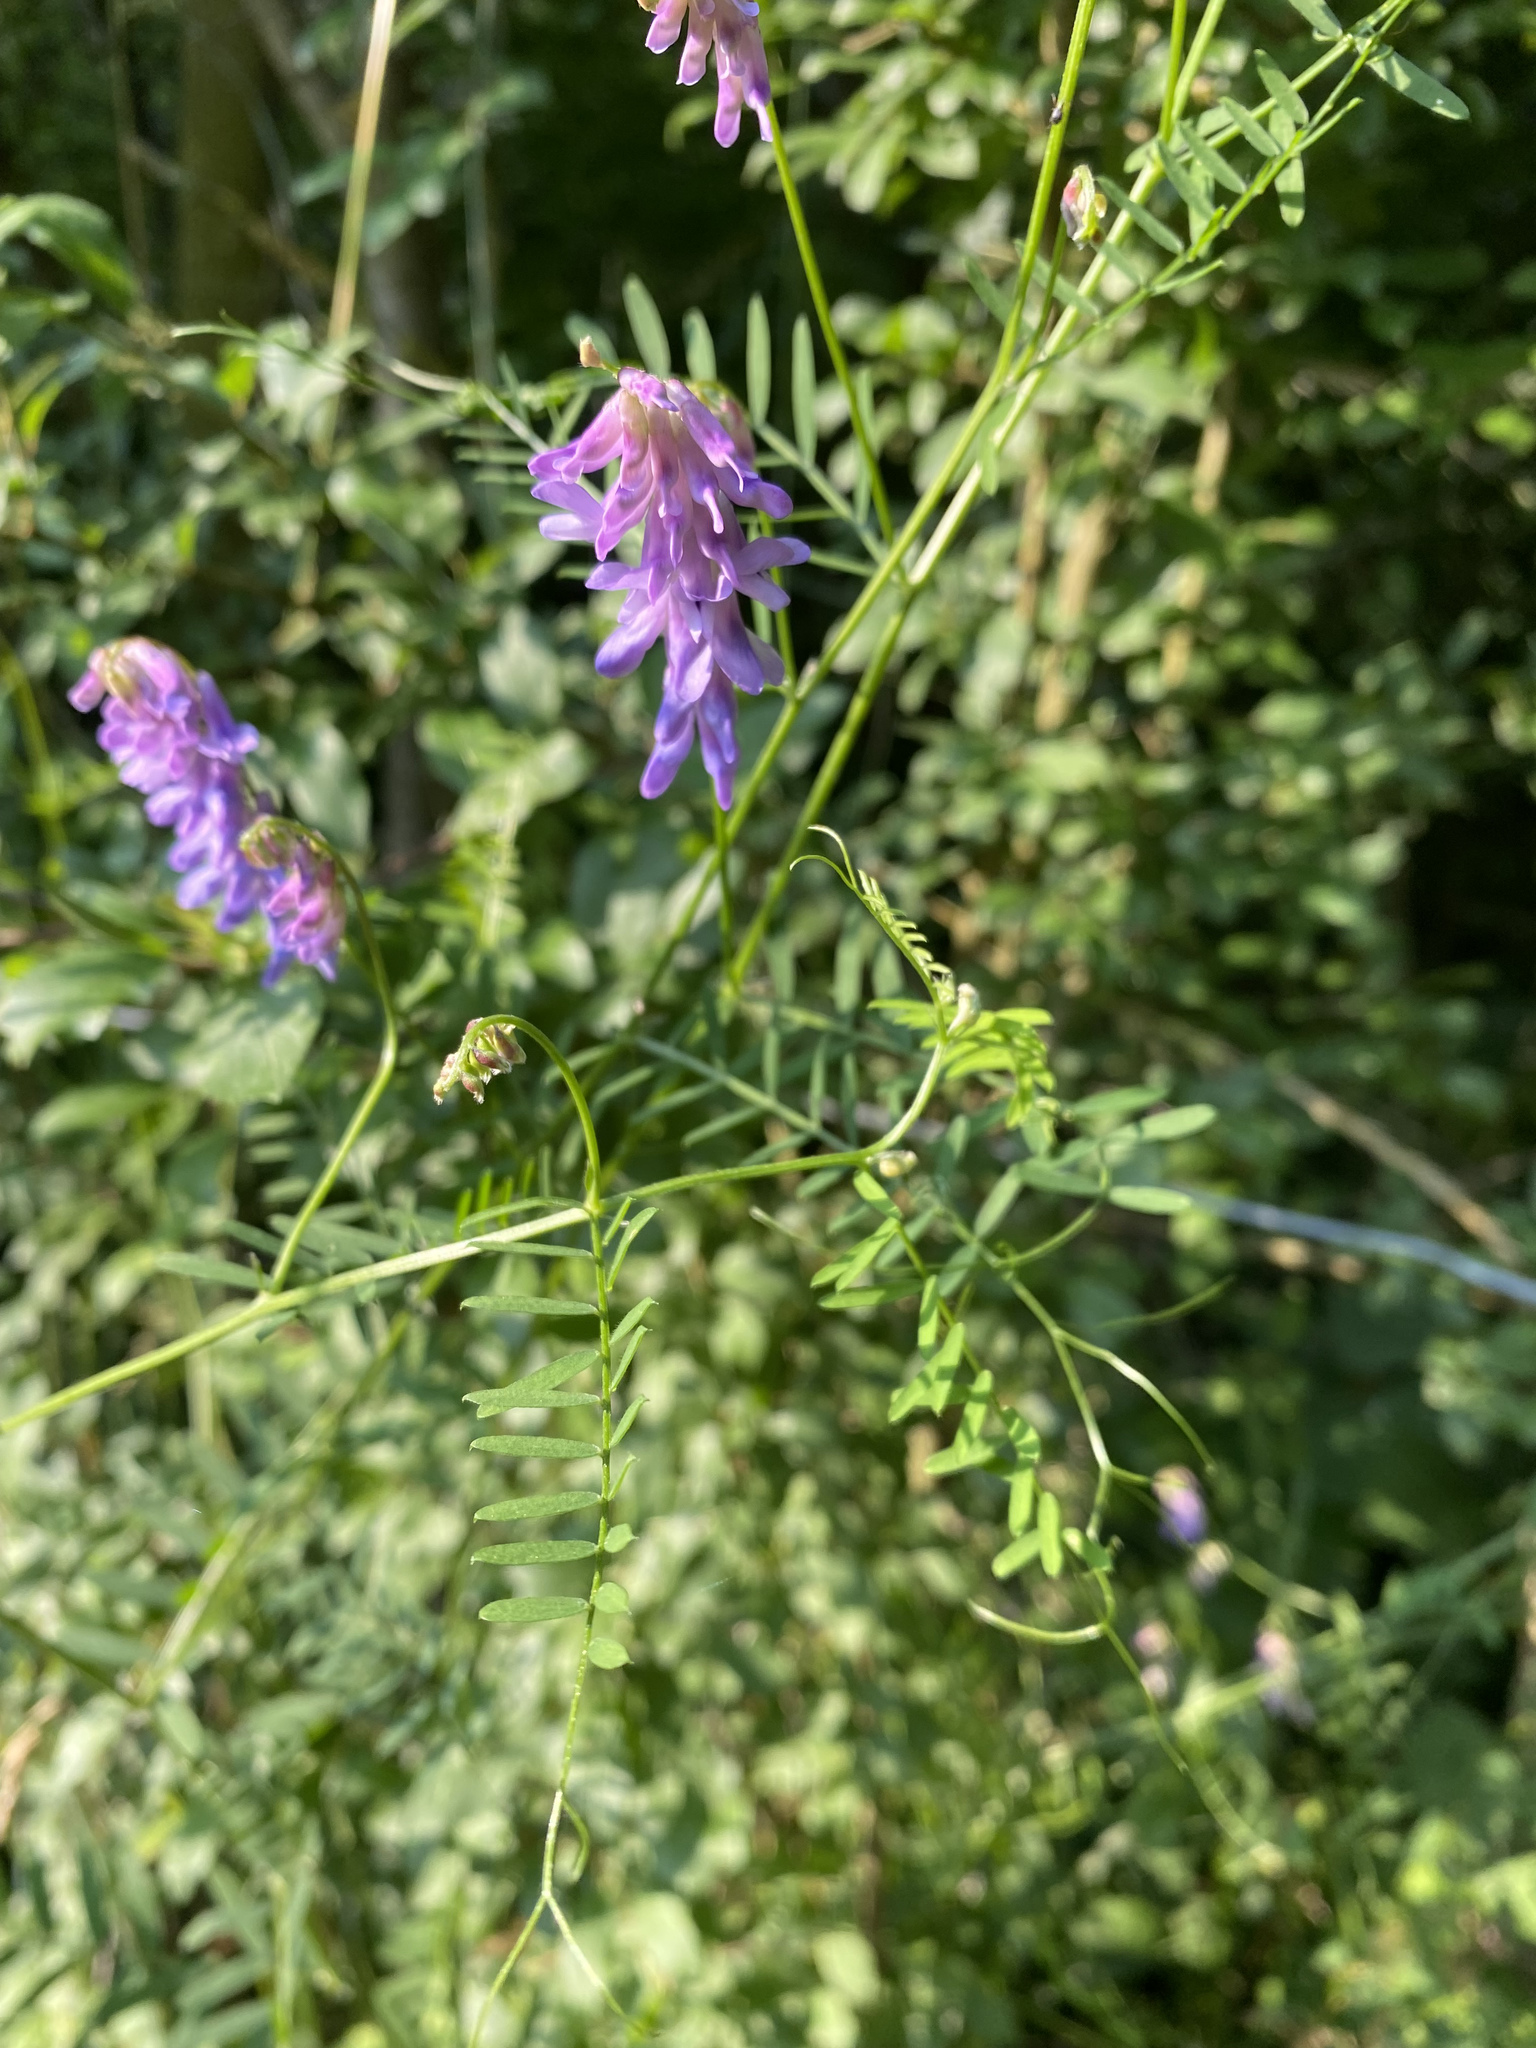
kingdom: Plantae
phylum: Tracheophyta
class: Magnoliopsida
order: Fabales
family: Fabaceae
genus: Vicia
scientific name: Vicia cracca
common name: Bird vetch
